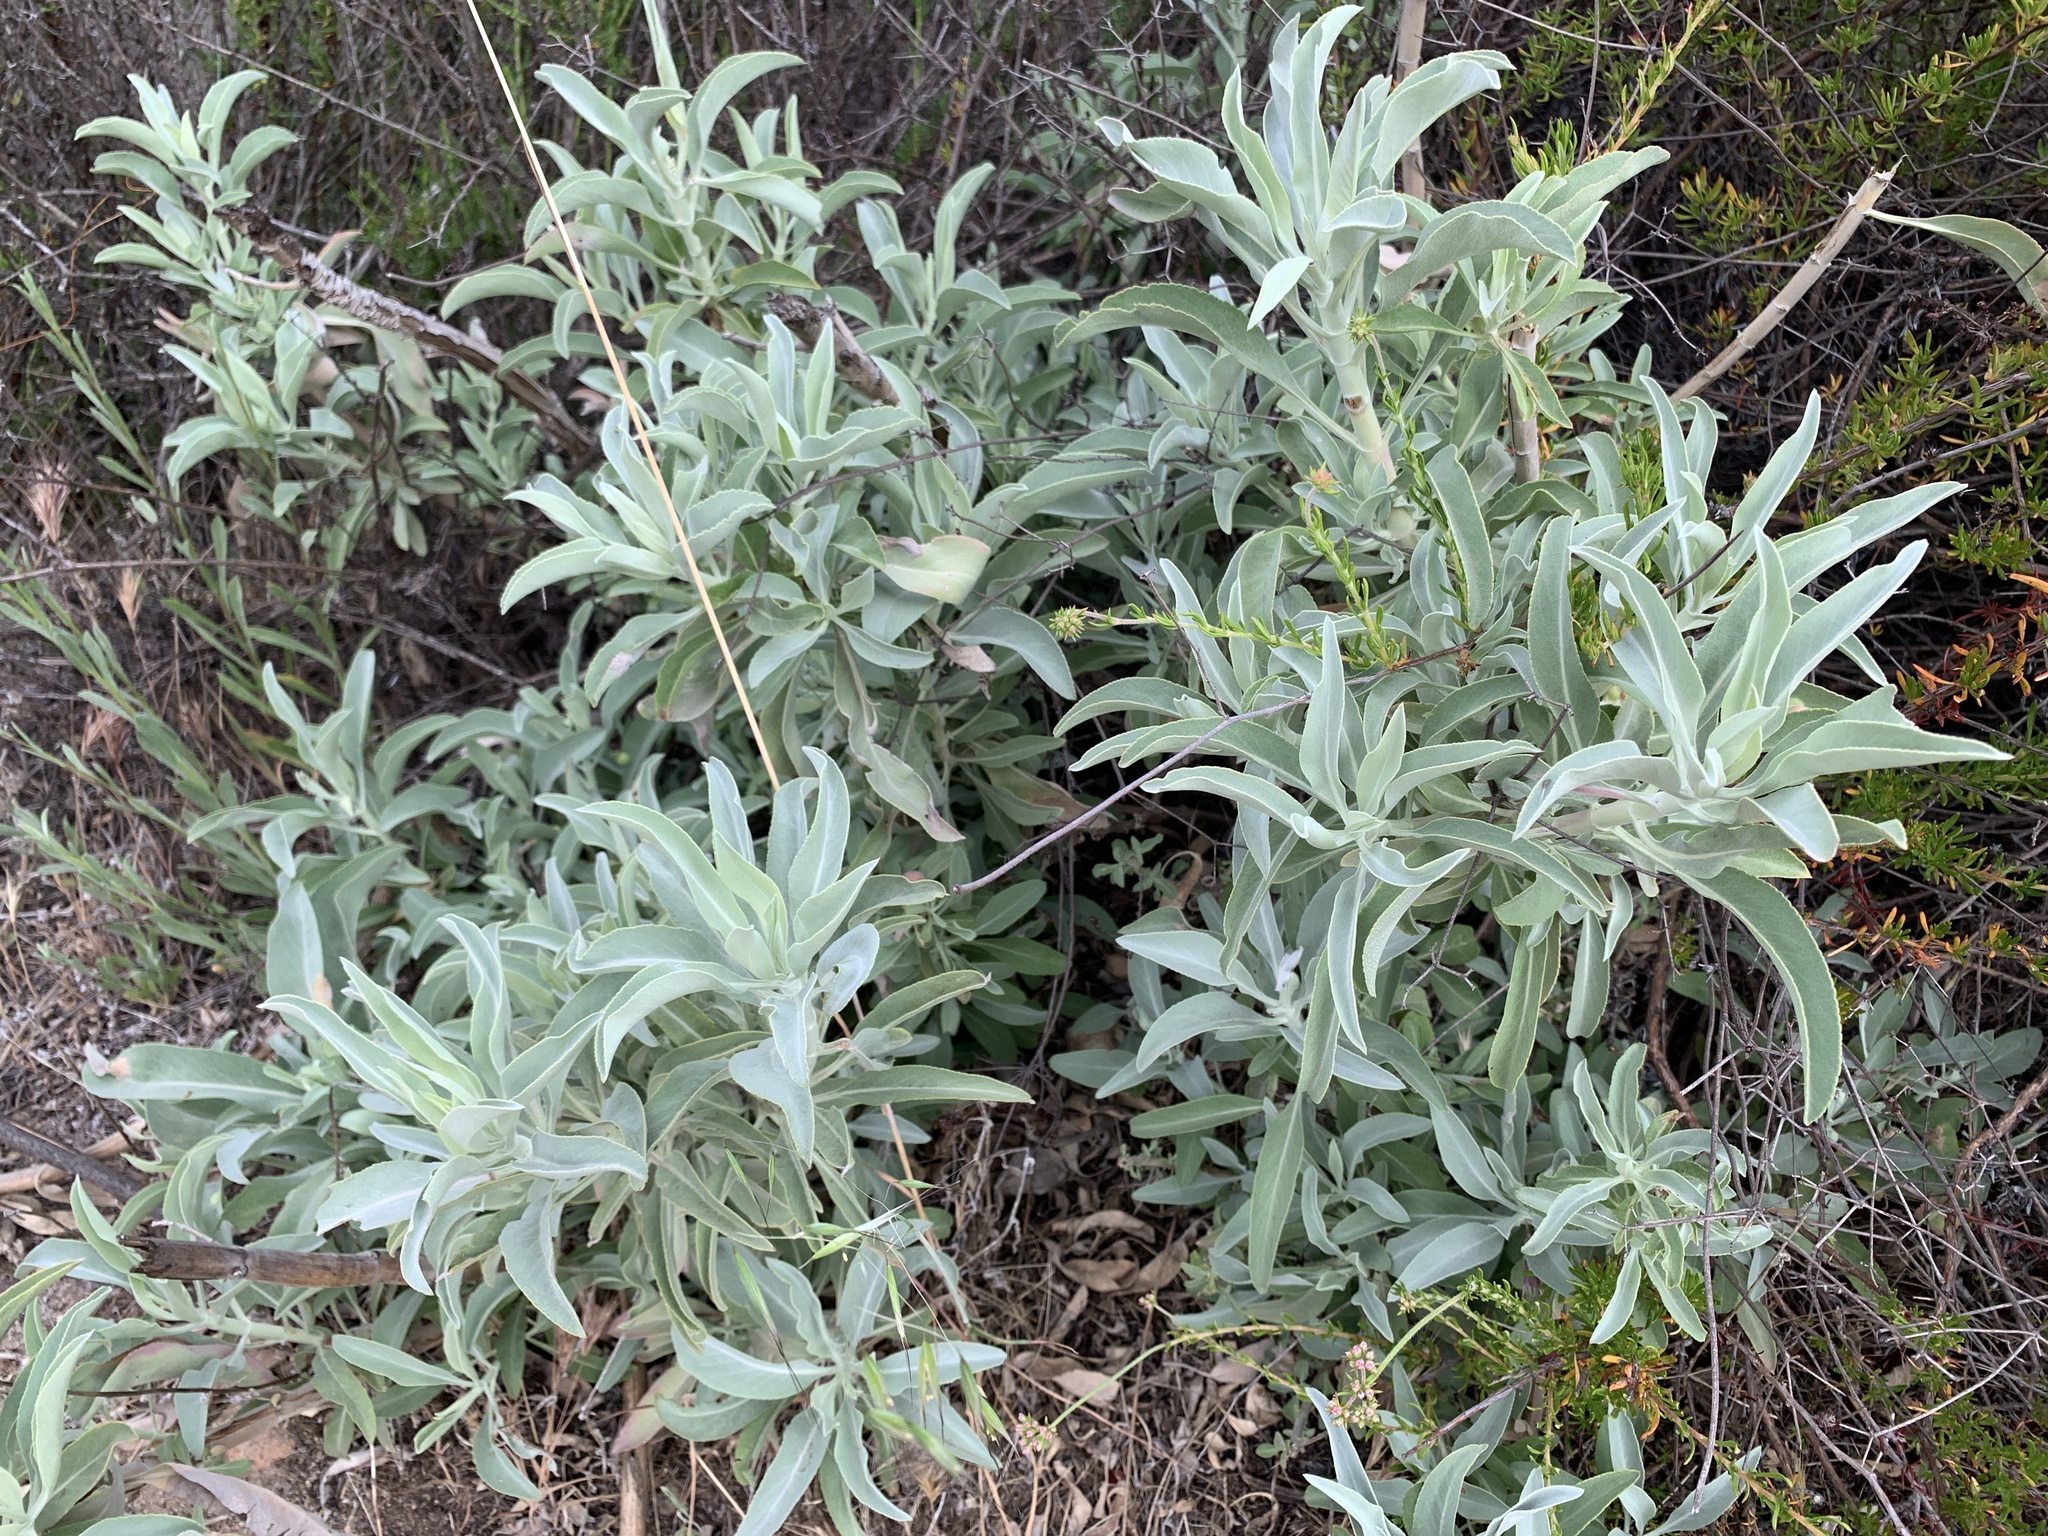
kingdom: Plantae
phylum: Tracheophyta
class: Magnoliopsida
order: Lamiales
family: Lamiaceae
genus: Salvia
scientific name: Salvia apiana
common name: White sage
